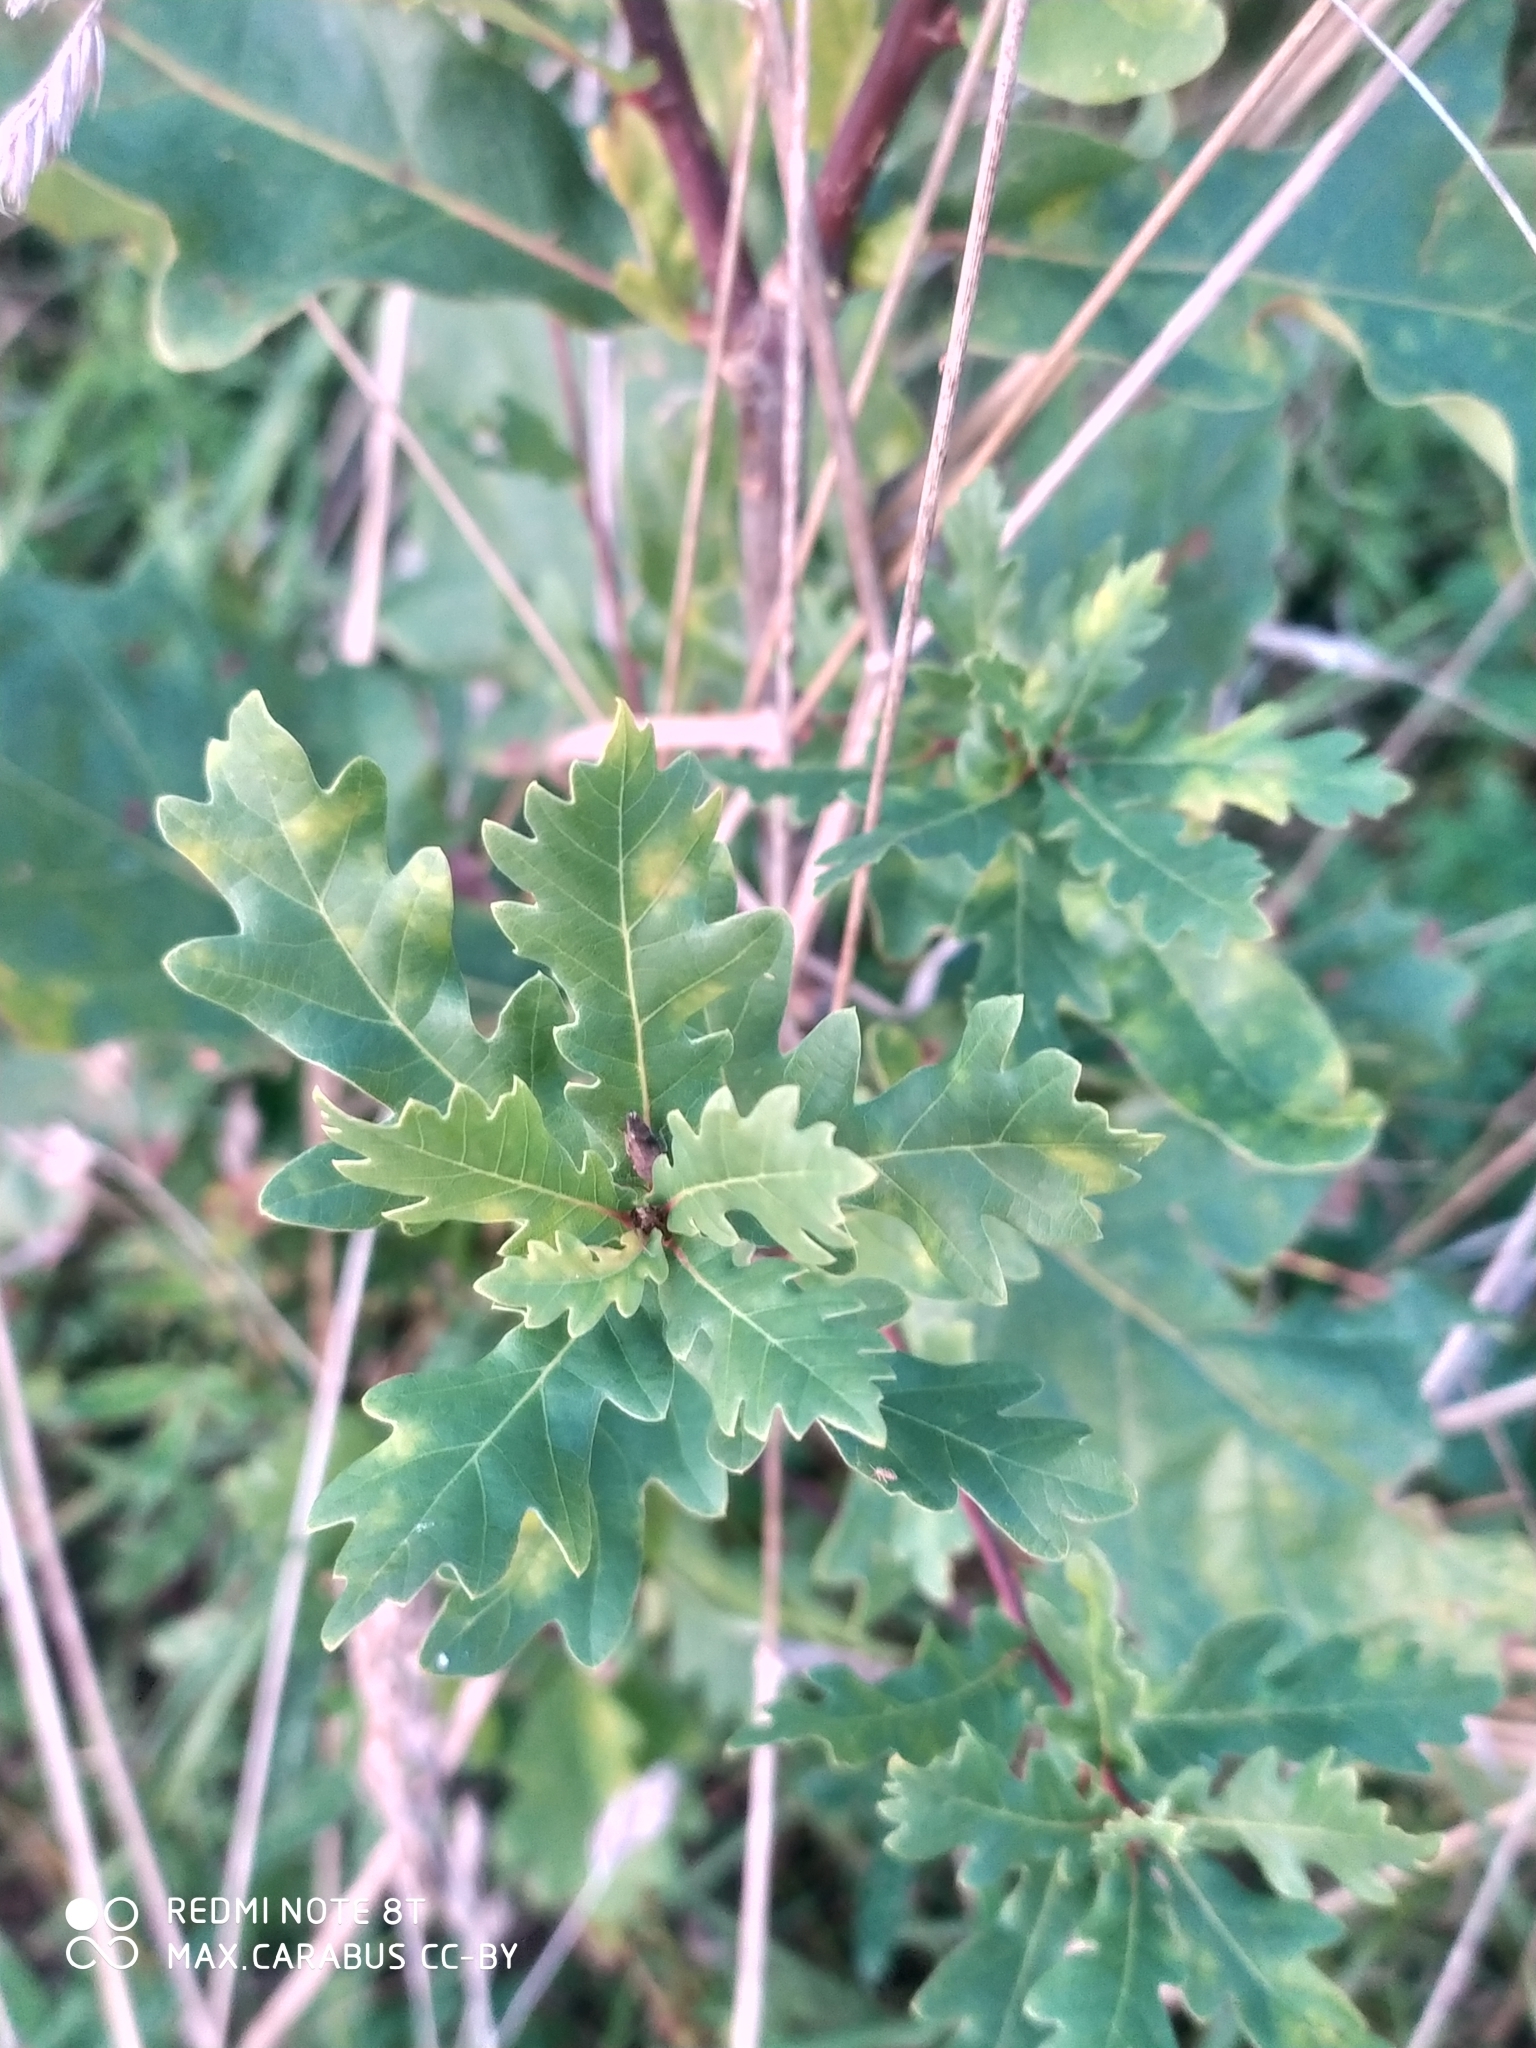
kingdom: Plantae
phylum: Tracheophyta
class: Magnoliopsida
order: Fagales
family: Fagaceae
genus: Quercus
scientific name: Quercus robur
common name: Pedunculate oak
